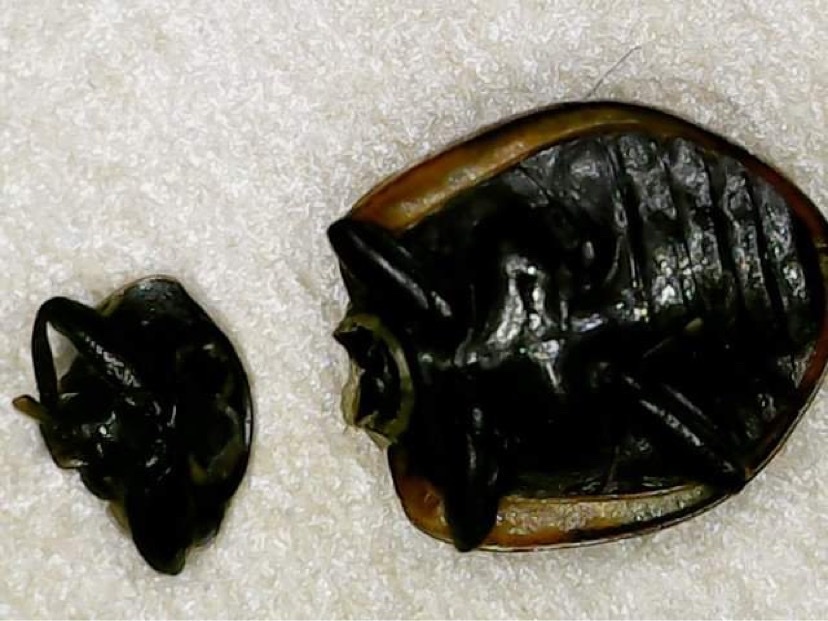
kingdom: Animalia
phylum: Arthropoda
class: Insecta
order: Coleoptera
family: Coccinellidae
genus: Adalia
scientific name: Adalia bipunctata
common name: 2-spot ladybird
